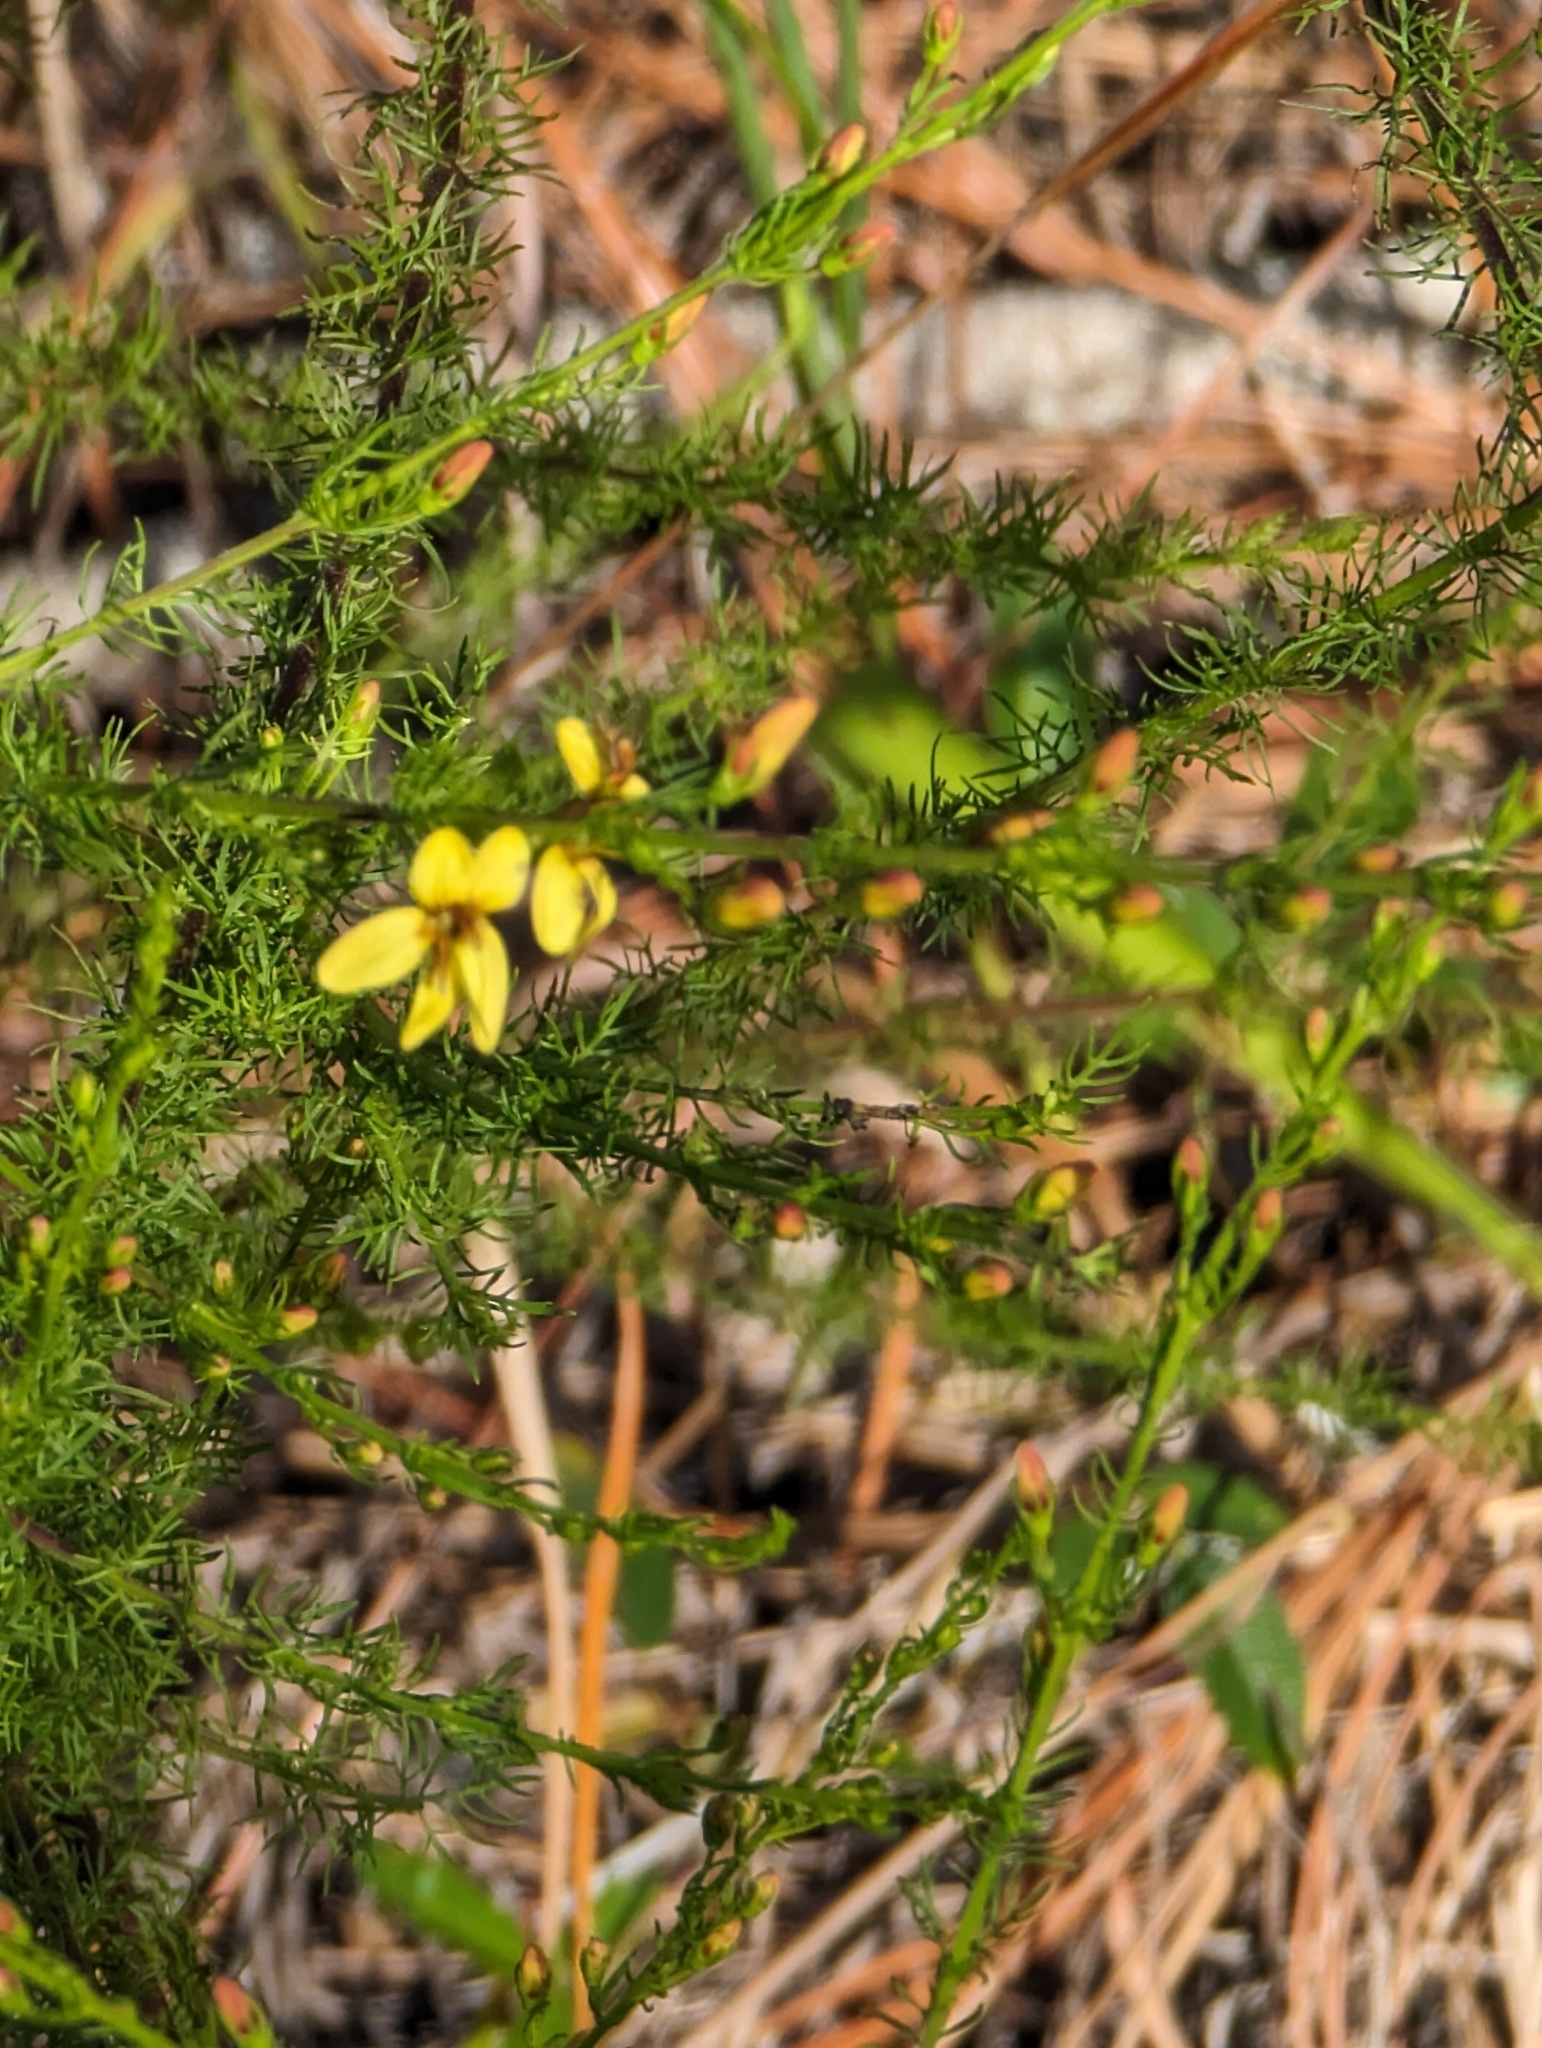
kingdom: Plantae
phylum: Tracheophyta
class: Magnoliopsida
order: Lamiales
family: Orobanchaceae
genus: Seymeria
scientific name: Seymeria cassioides
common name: Yaupon black-senna
